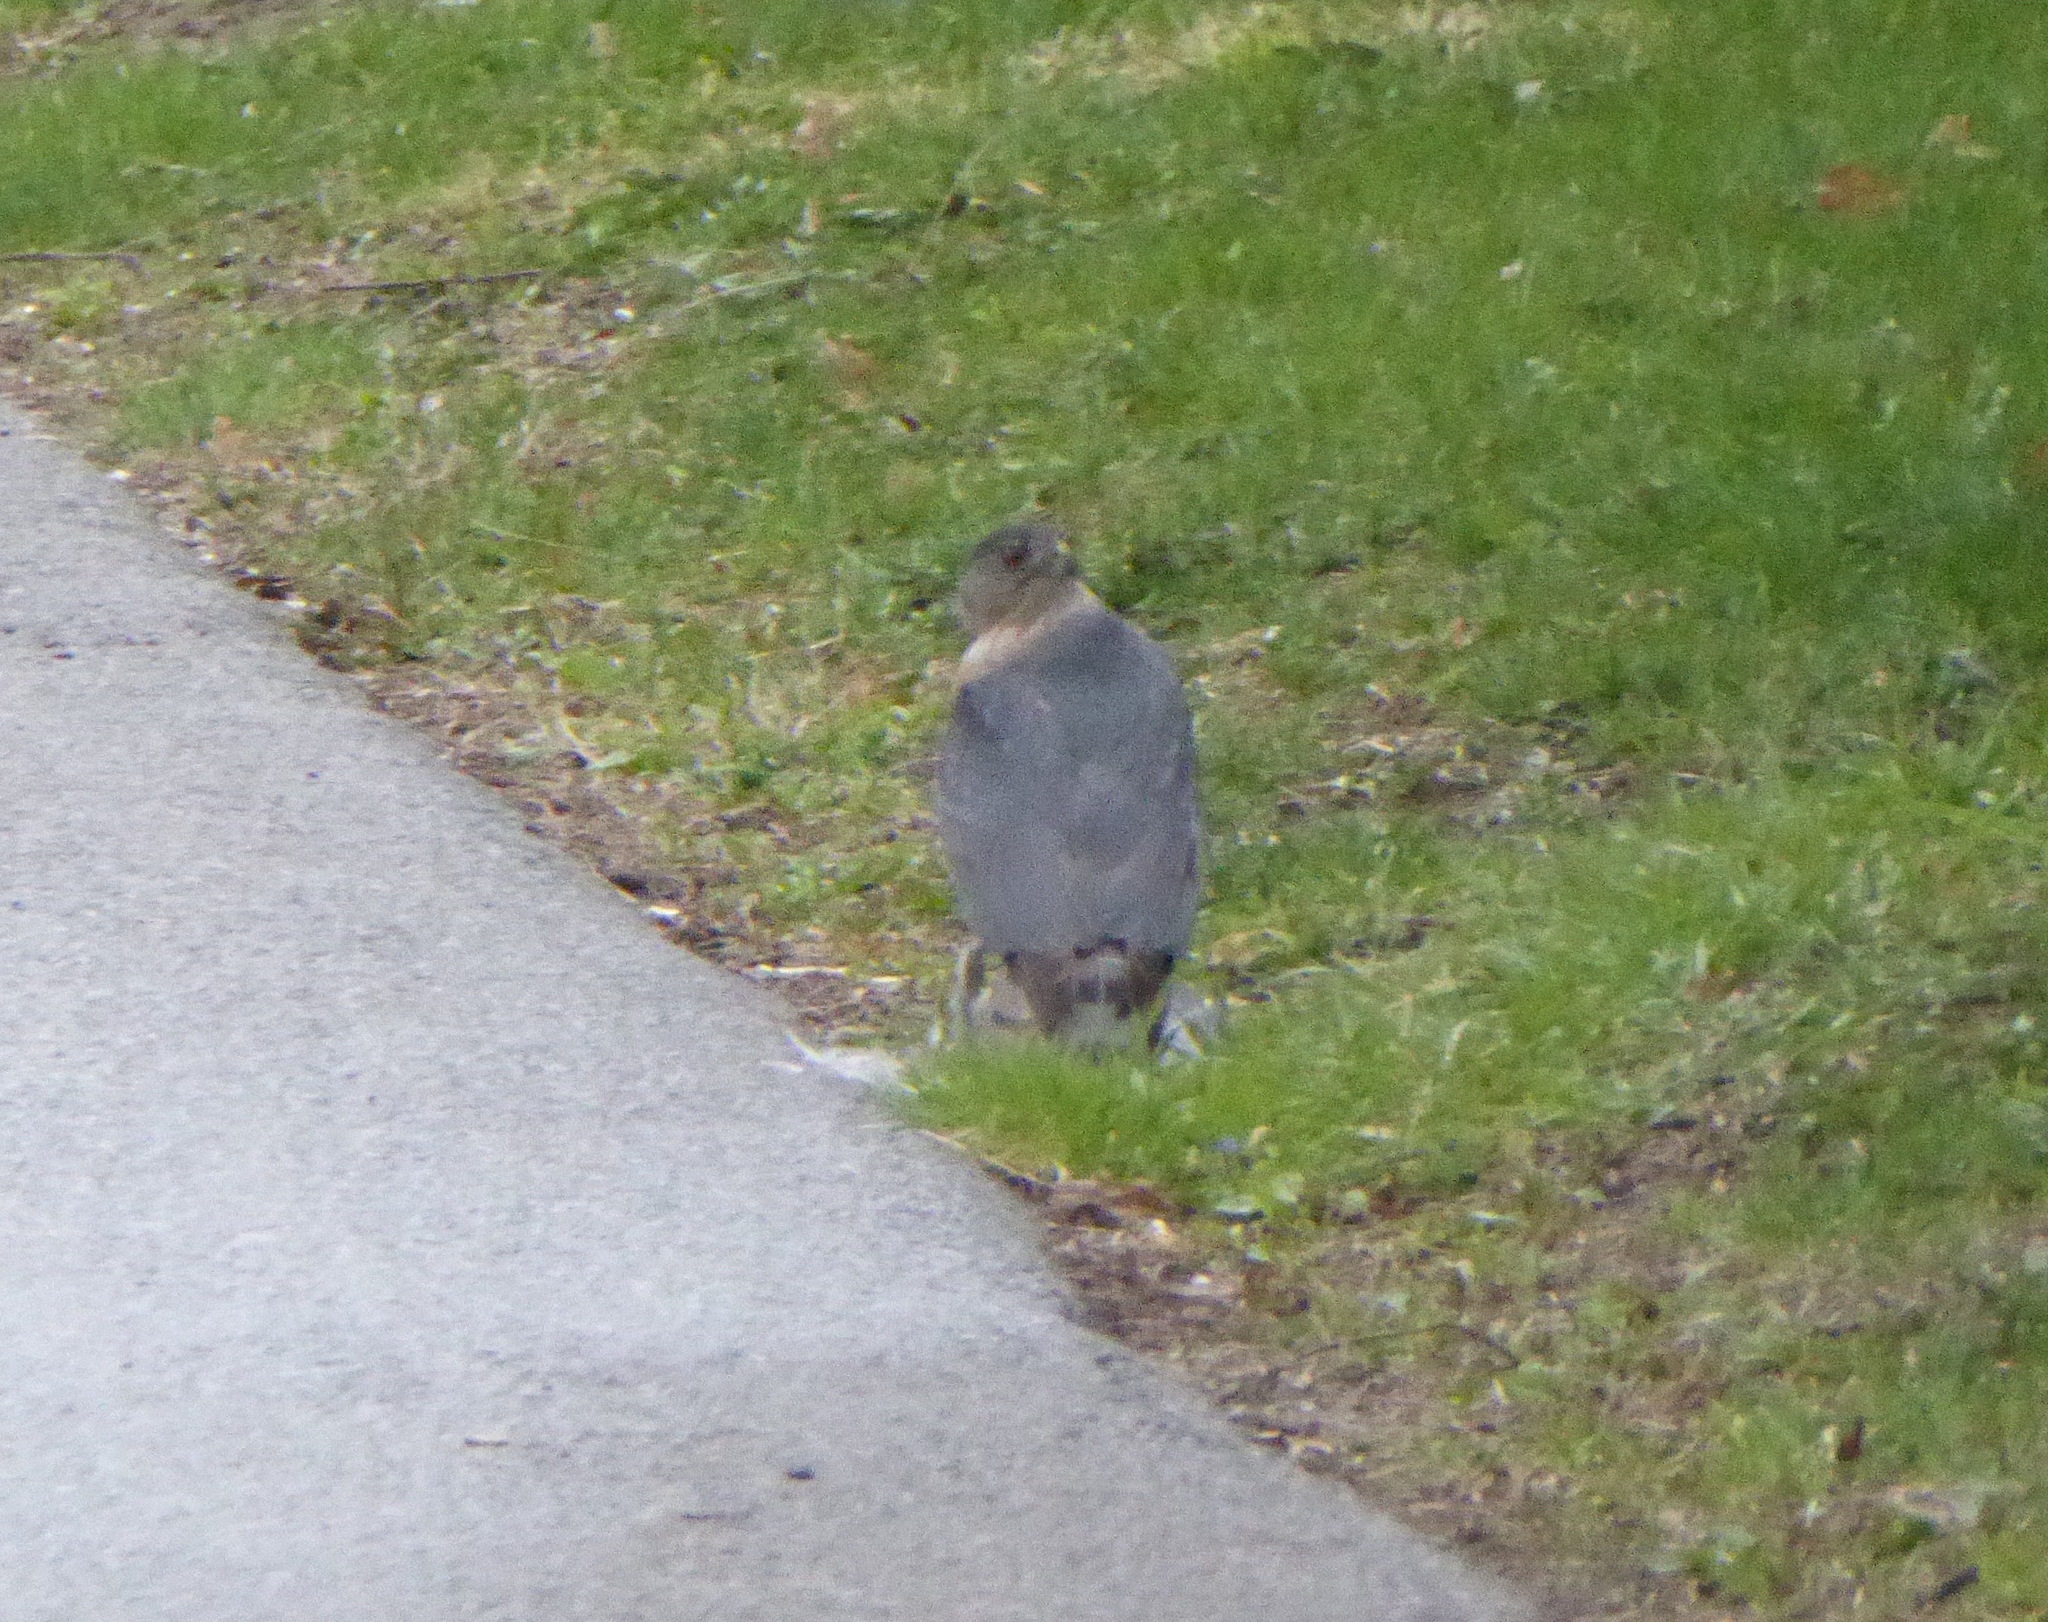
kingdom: Animalia
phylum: Chordata
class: Aves
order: Accipitriformes
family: Accipitridae
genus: Accipiter
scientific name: Accipiter cooperii
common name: Cooper's hawk
